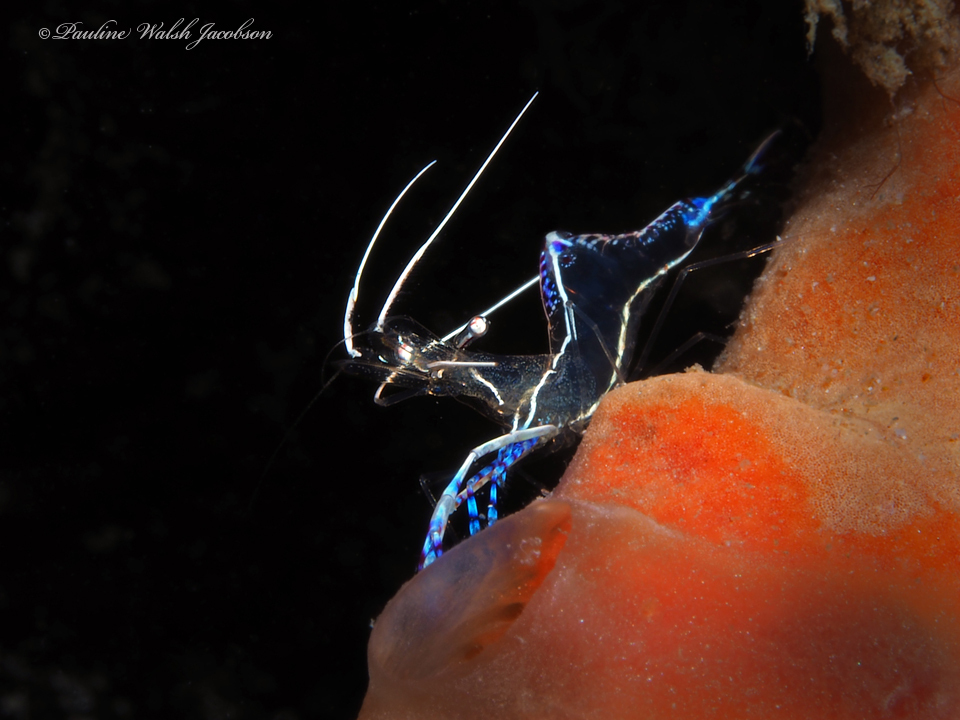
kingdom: Animalia
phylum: Arthropoda
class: Malacostraca
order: Decapoda
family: Palaemonidae
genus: Ancylomenes
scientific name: Ancylomenes pedersoni
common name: Pederson's cleaning shrimp
